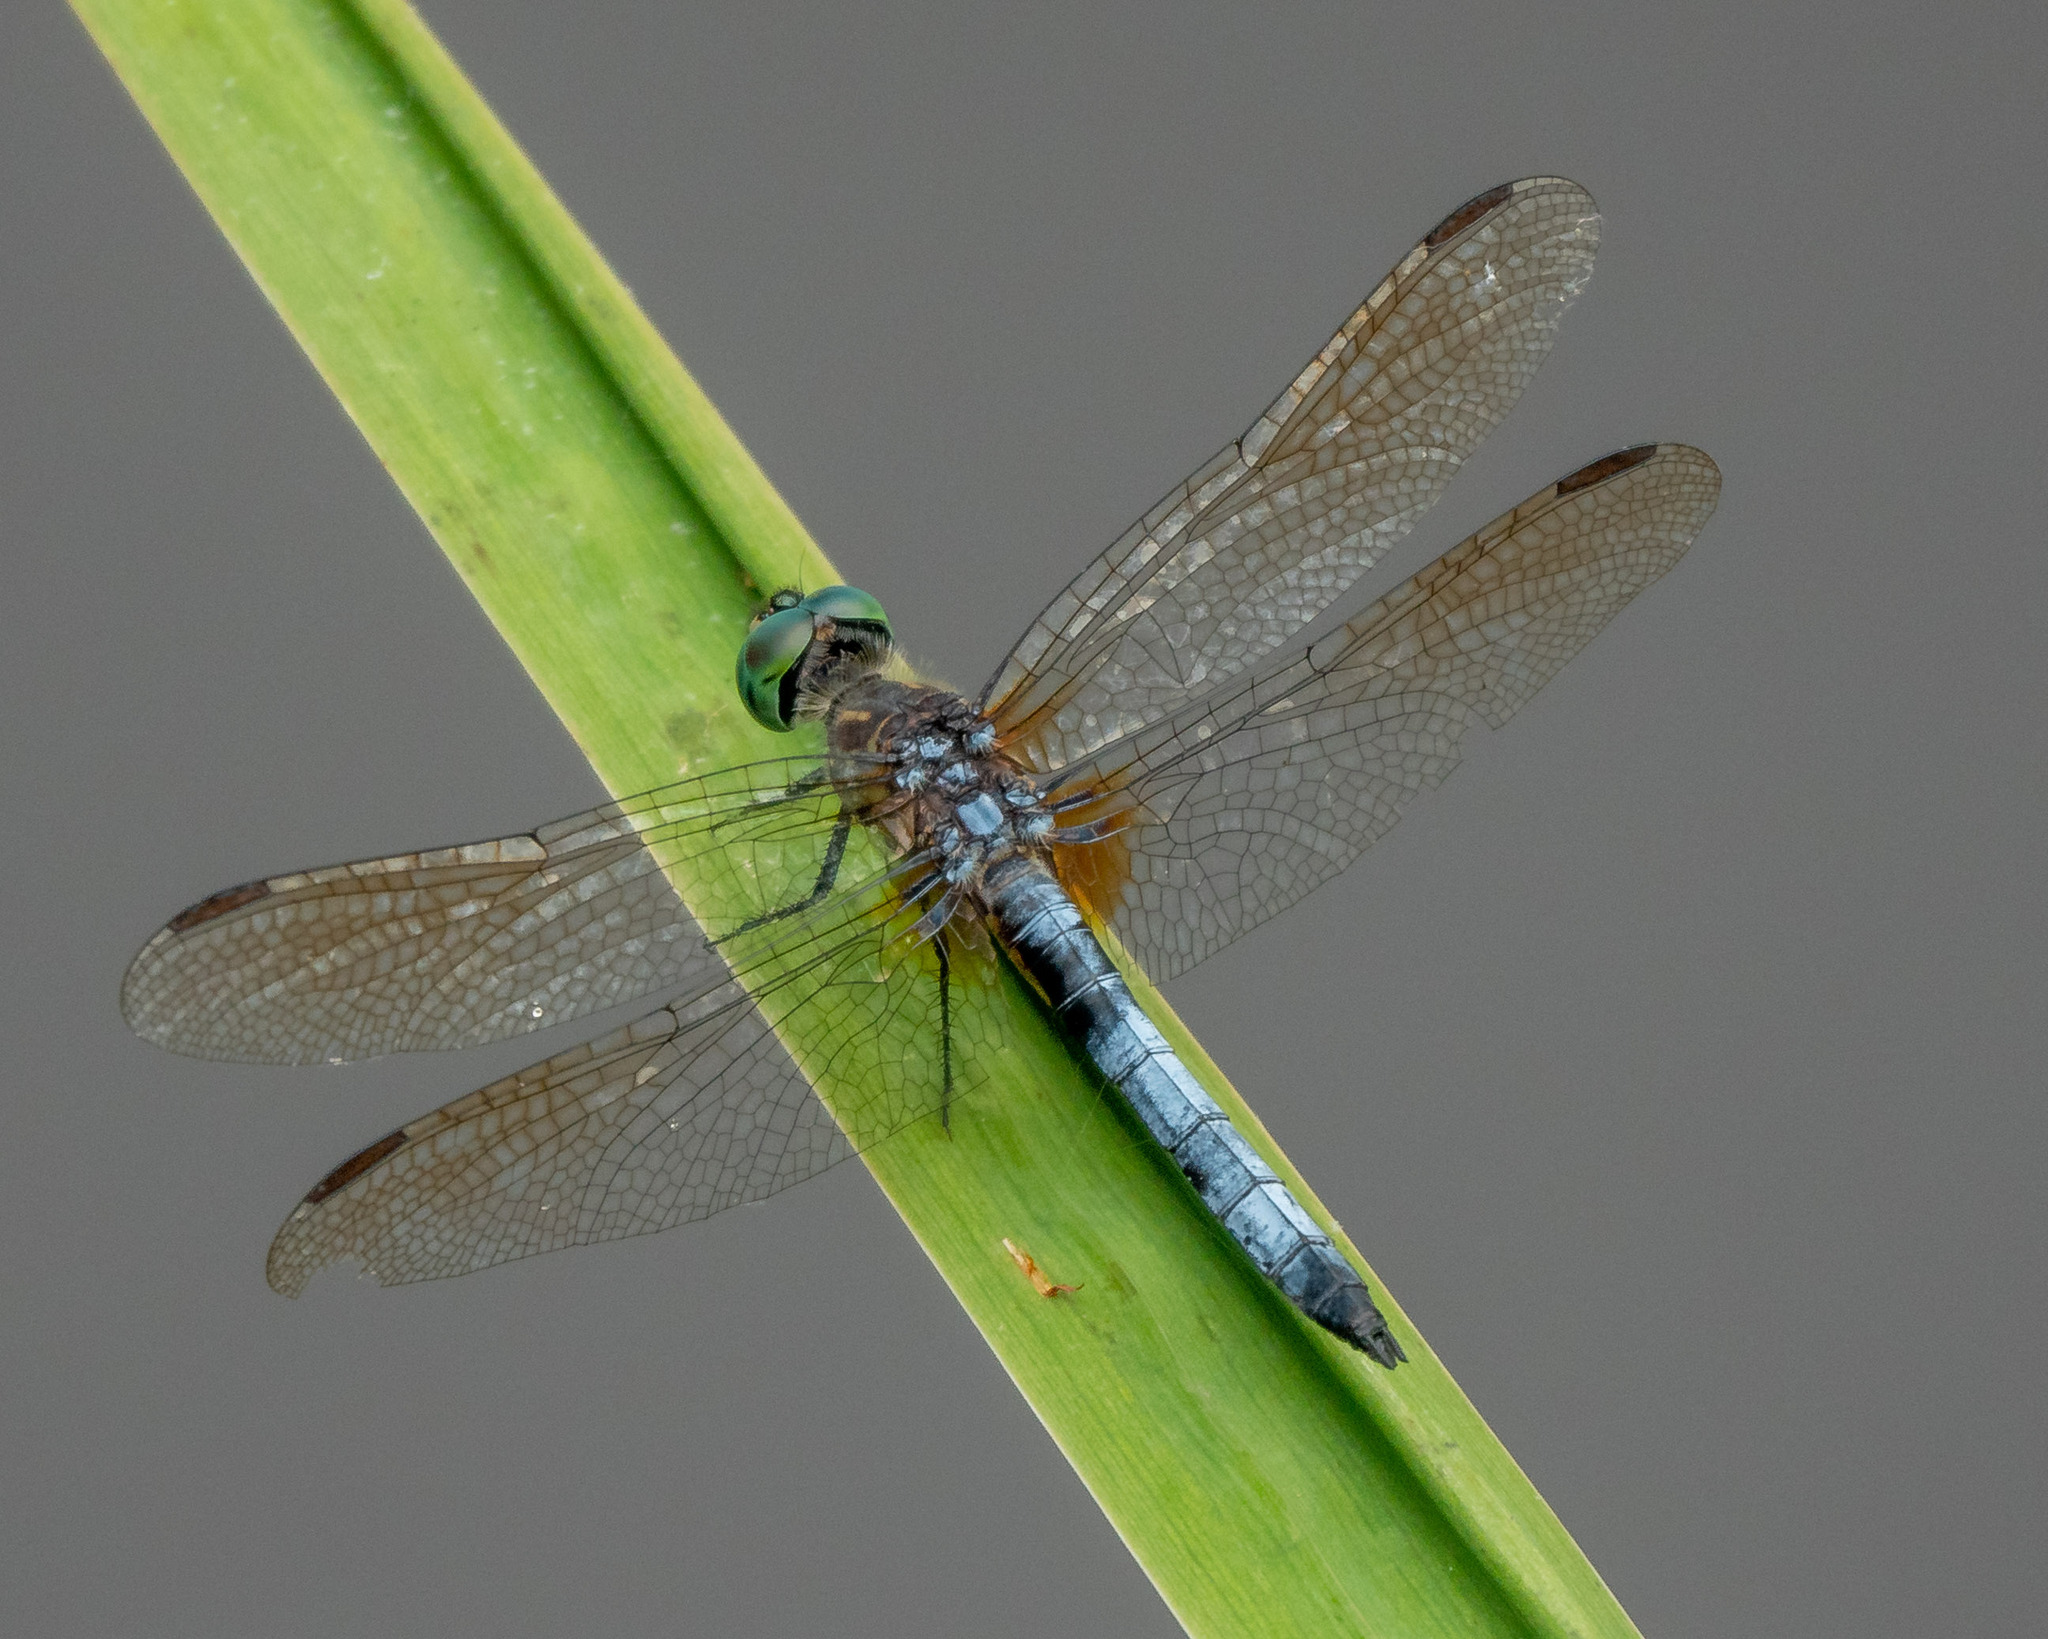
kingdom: Animalia
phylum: Arthropoda
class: Insecta
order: Odonata
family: Libellulidae
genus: Pachydiplax
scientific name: Pachydiplax longipennis
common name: Blue dasher
